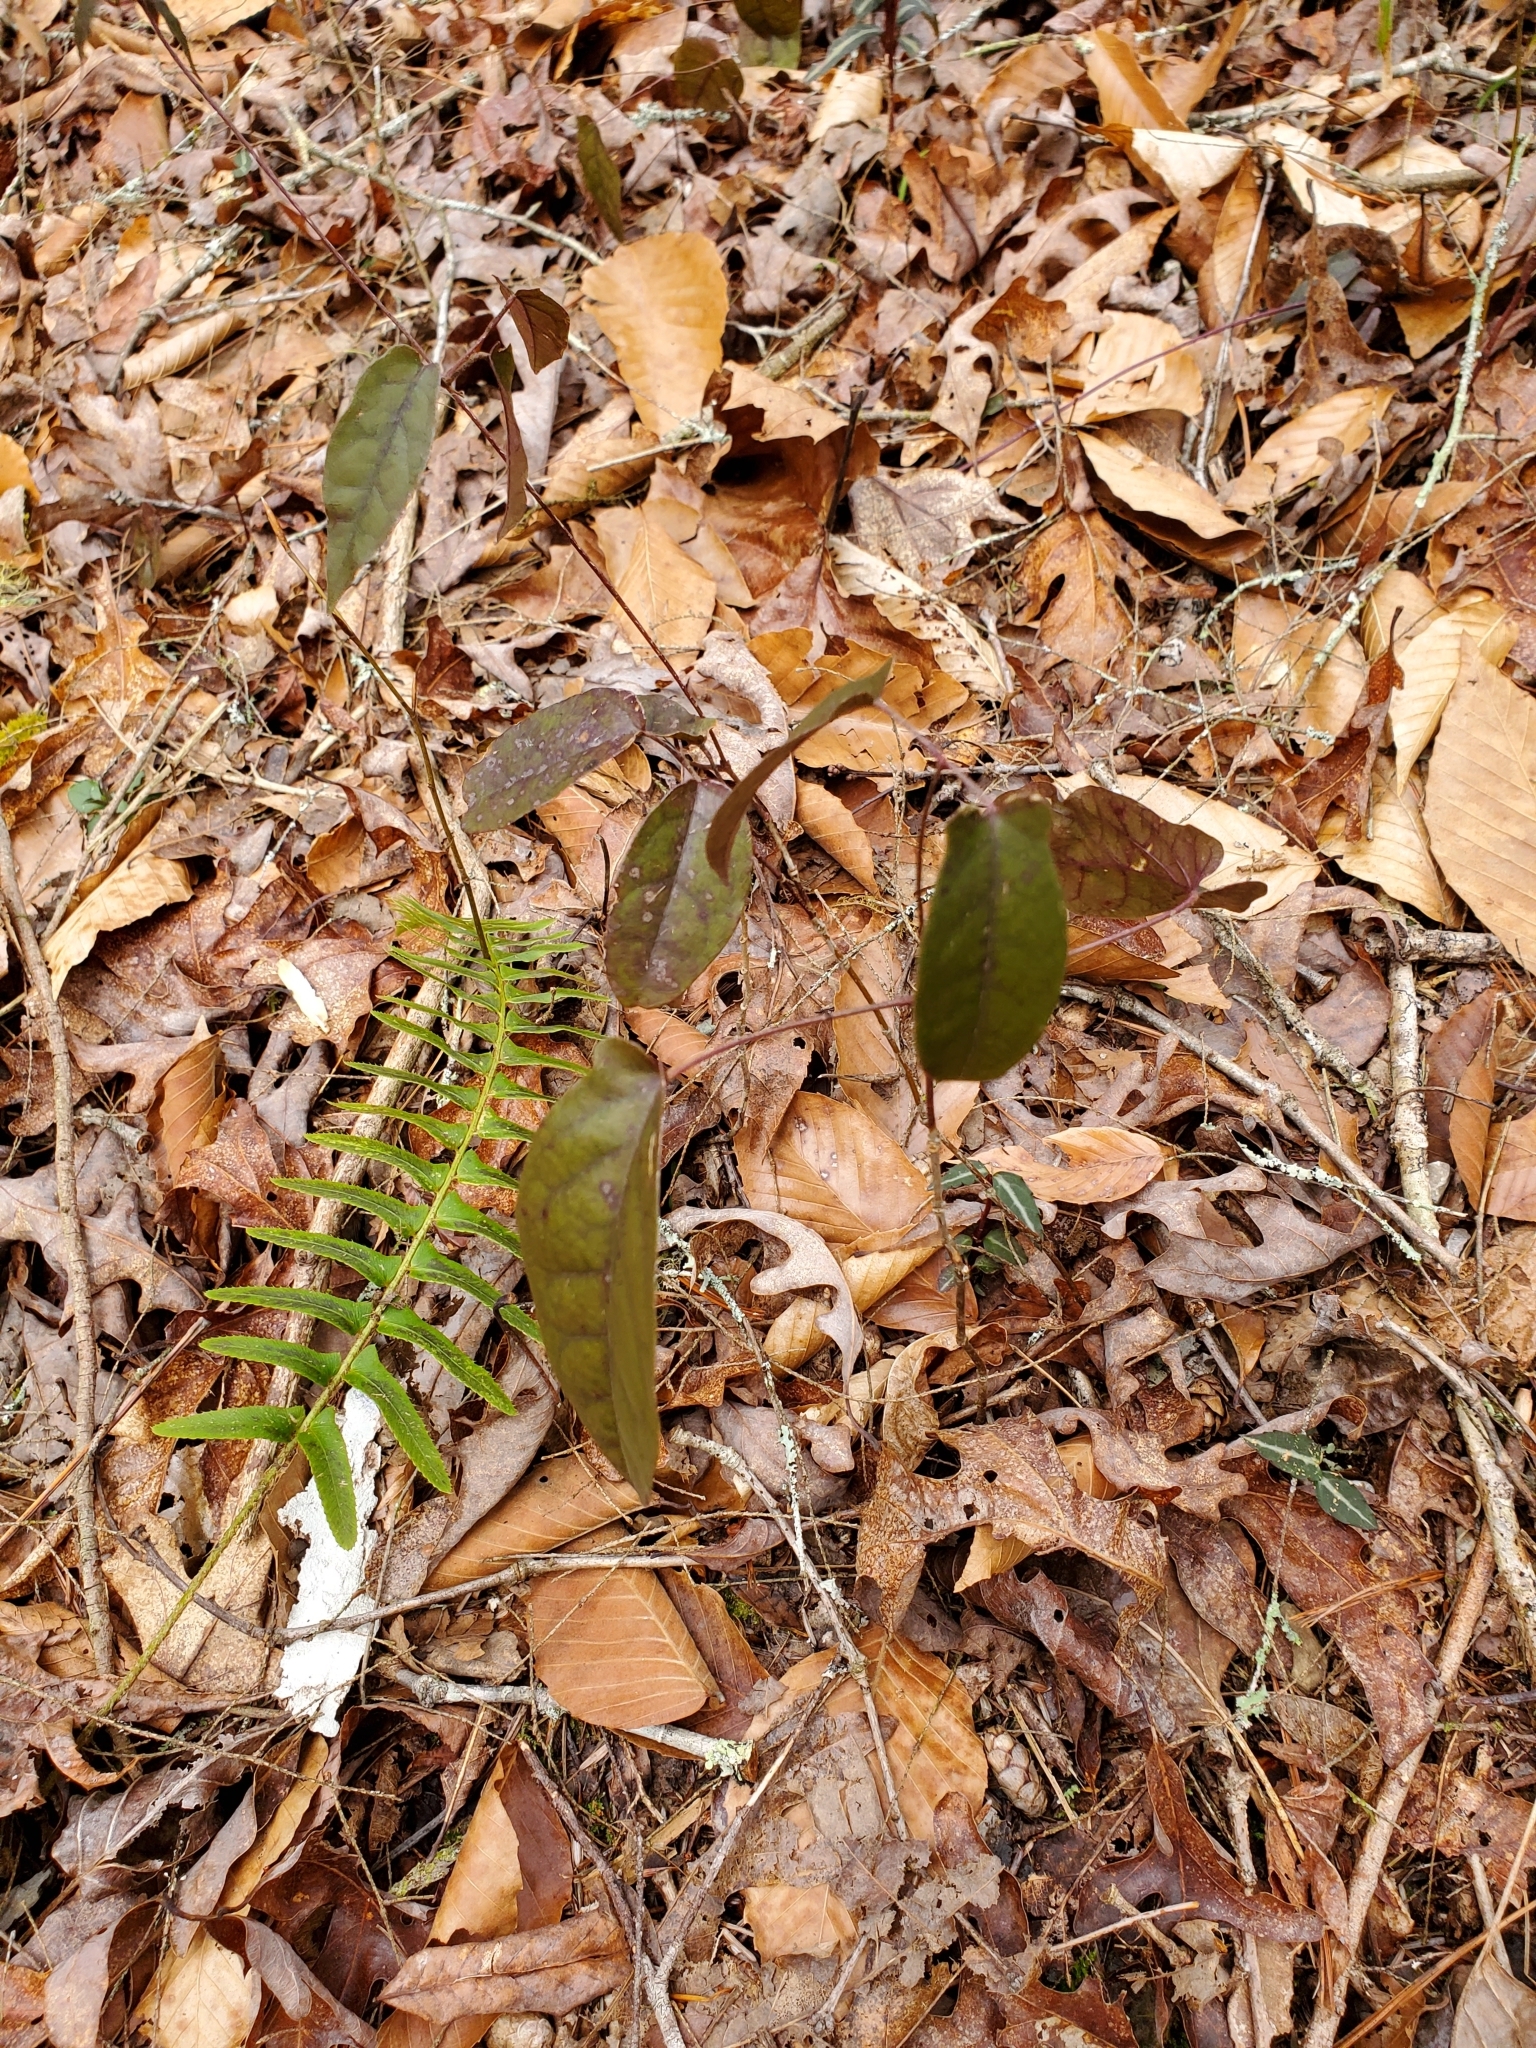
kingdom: Plantae
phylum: Tracheophyta
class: Magnoliopsida
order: Lamiales
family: Bignoniaceae
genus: Bignonia
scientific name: Bignonia capreolata
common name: Crossvine
